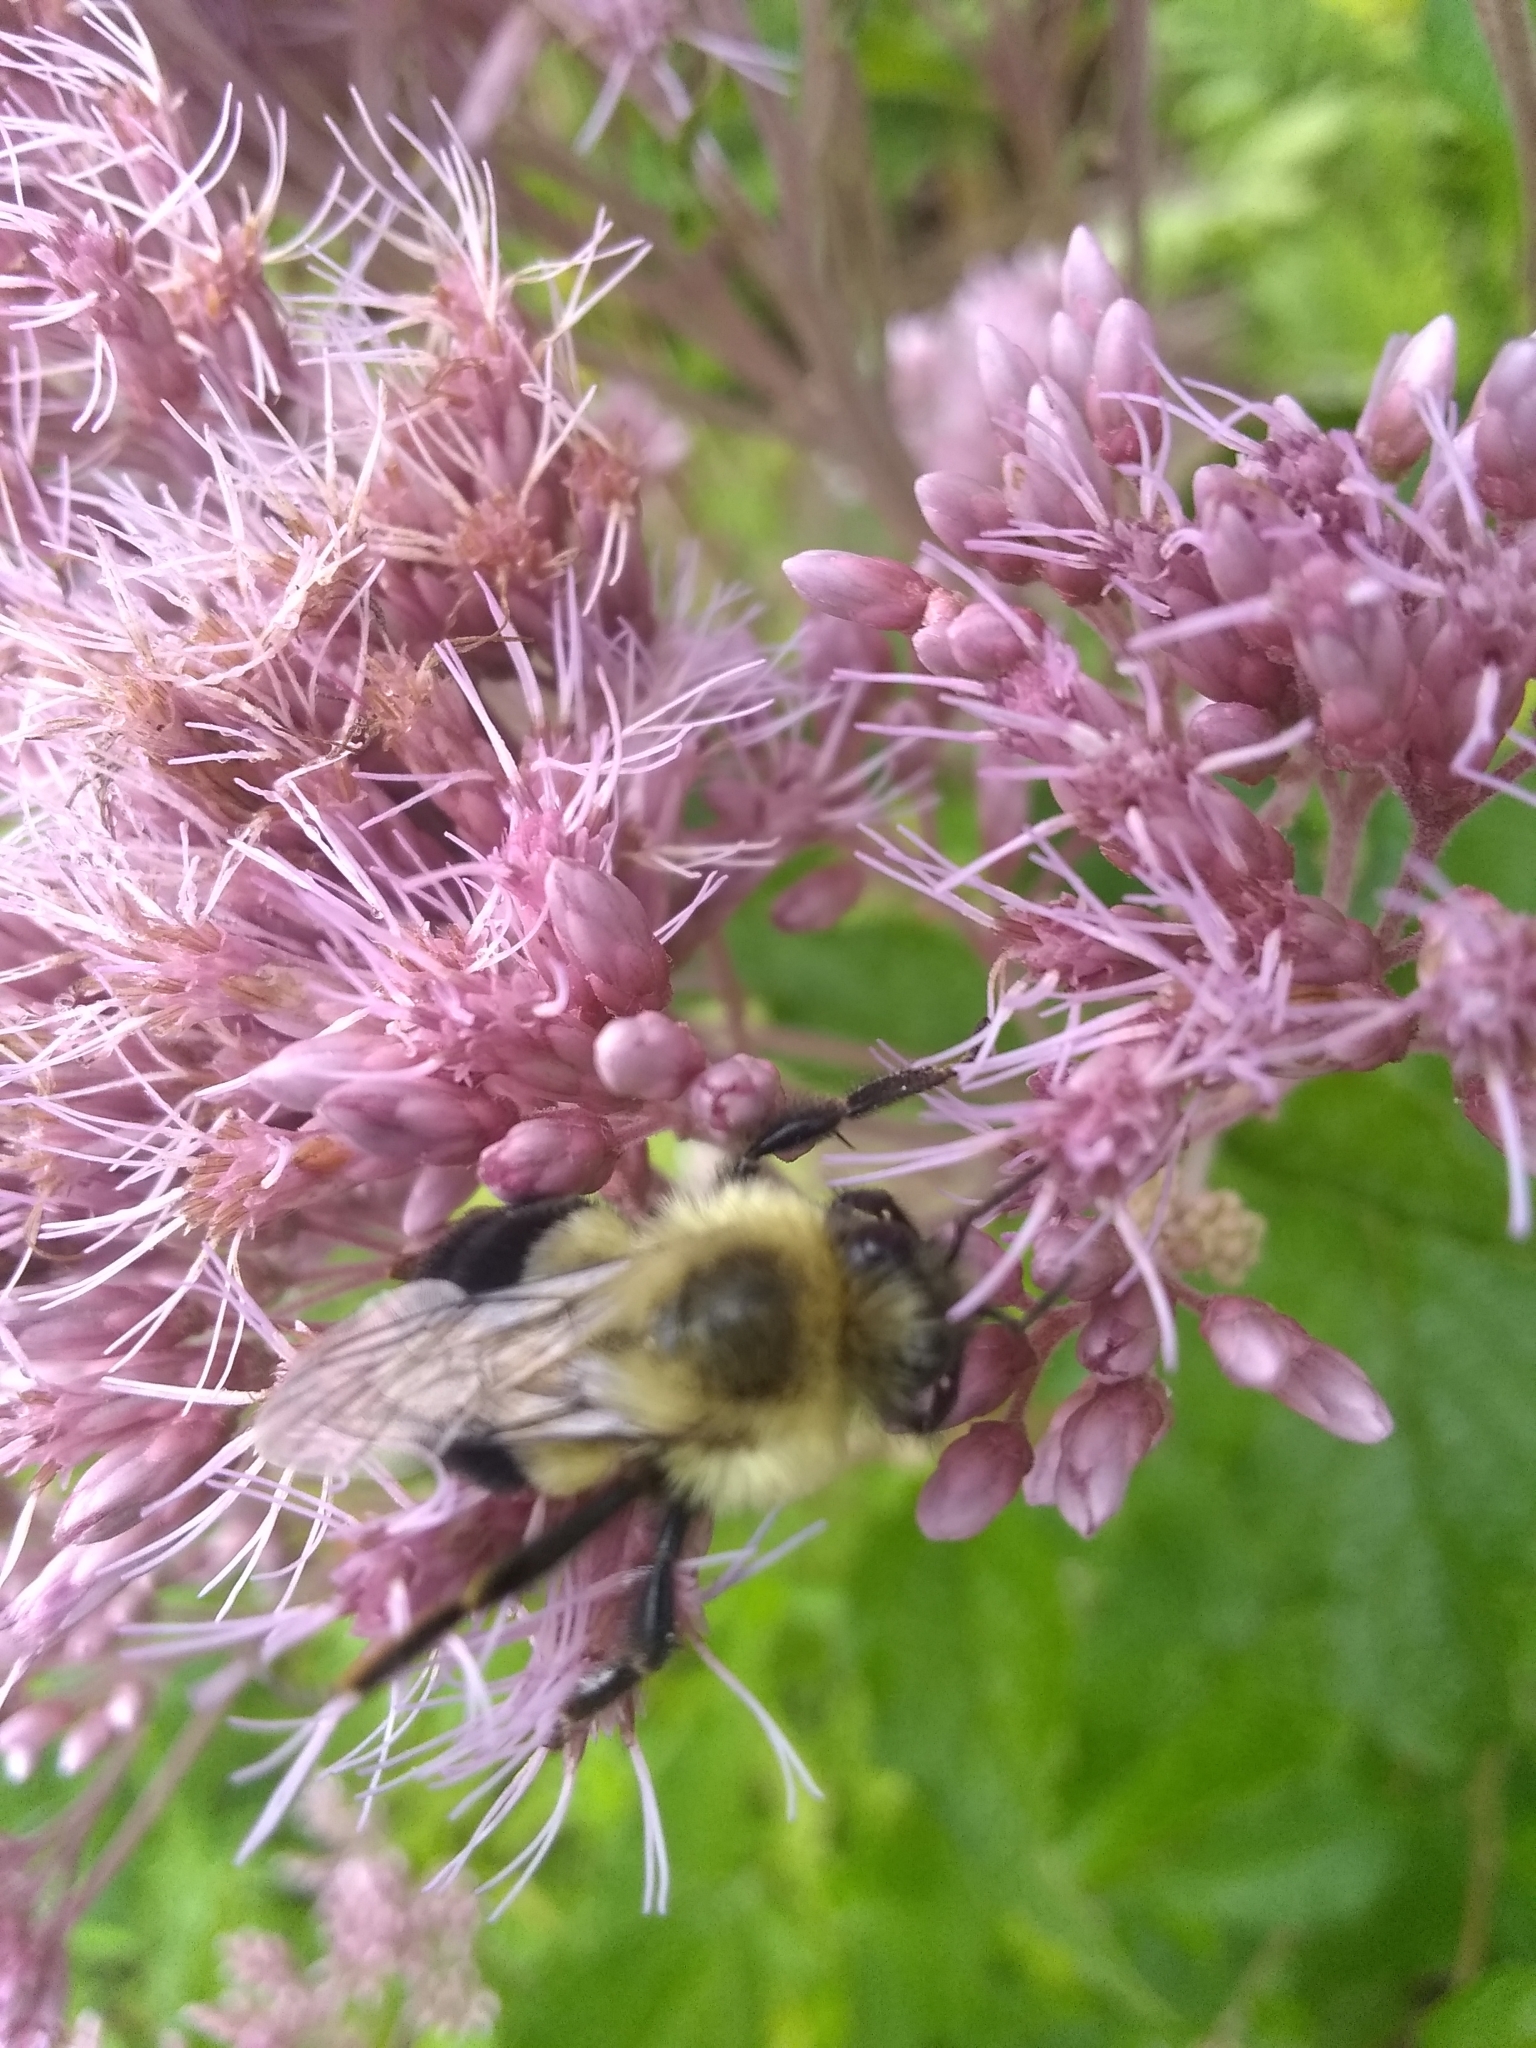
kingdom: Animalia
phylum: Arthropoda
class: Insecta
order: Hymenoptera
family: Apidae
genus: Bombus
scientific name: Bombus impatiens
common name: Common eastern bumble bee
